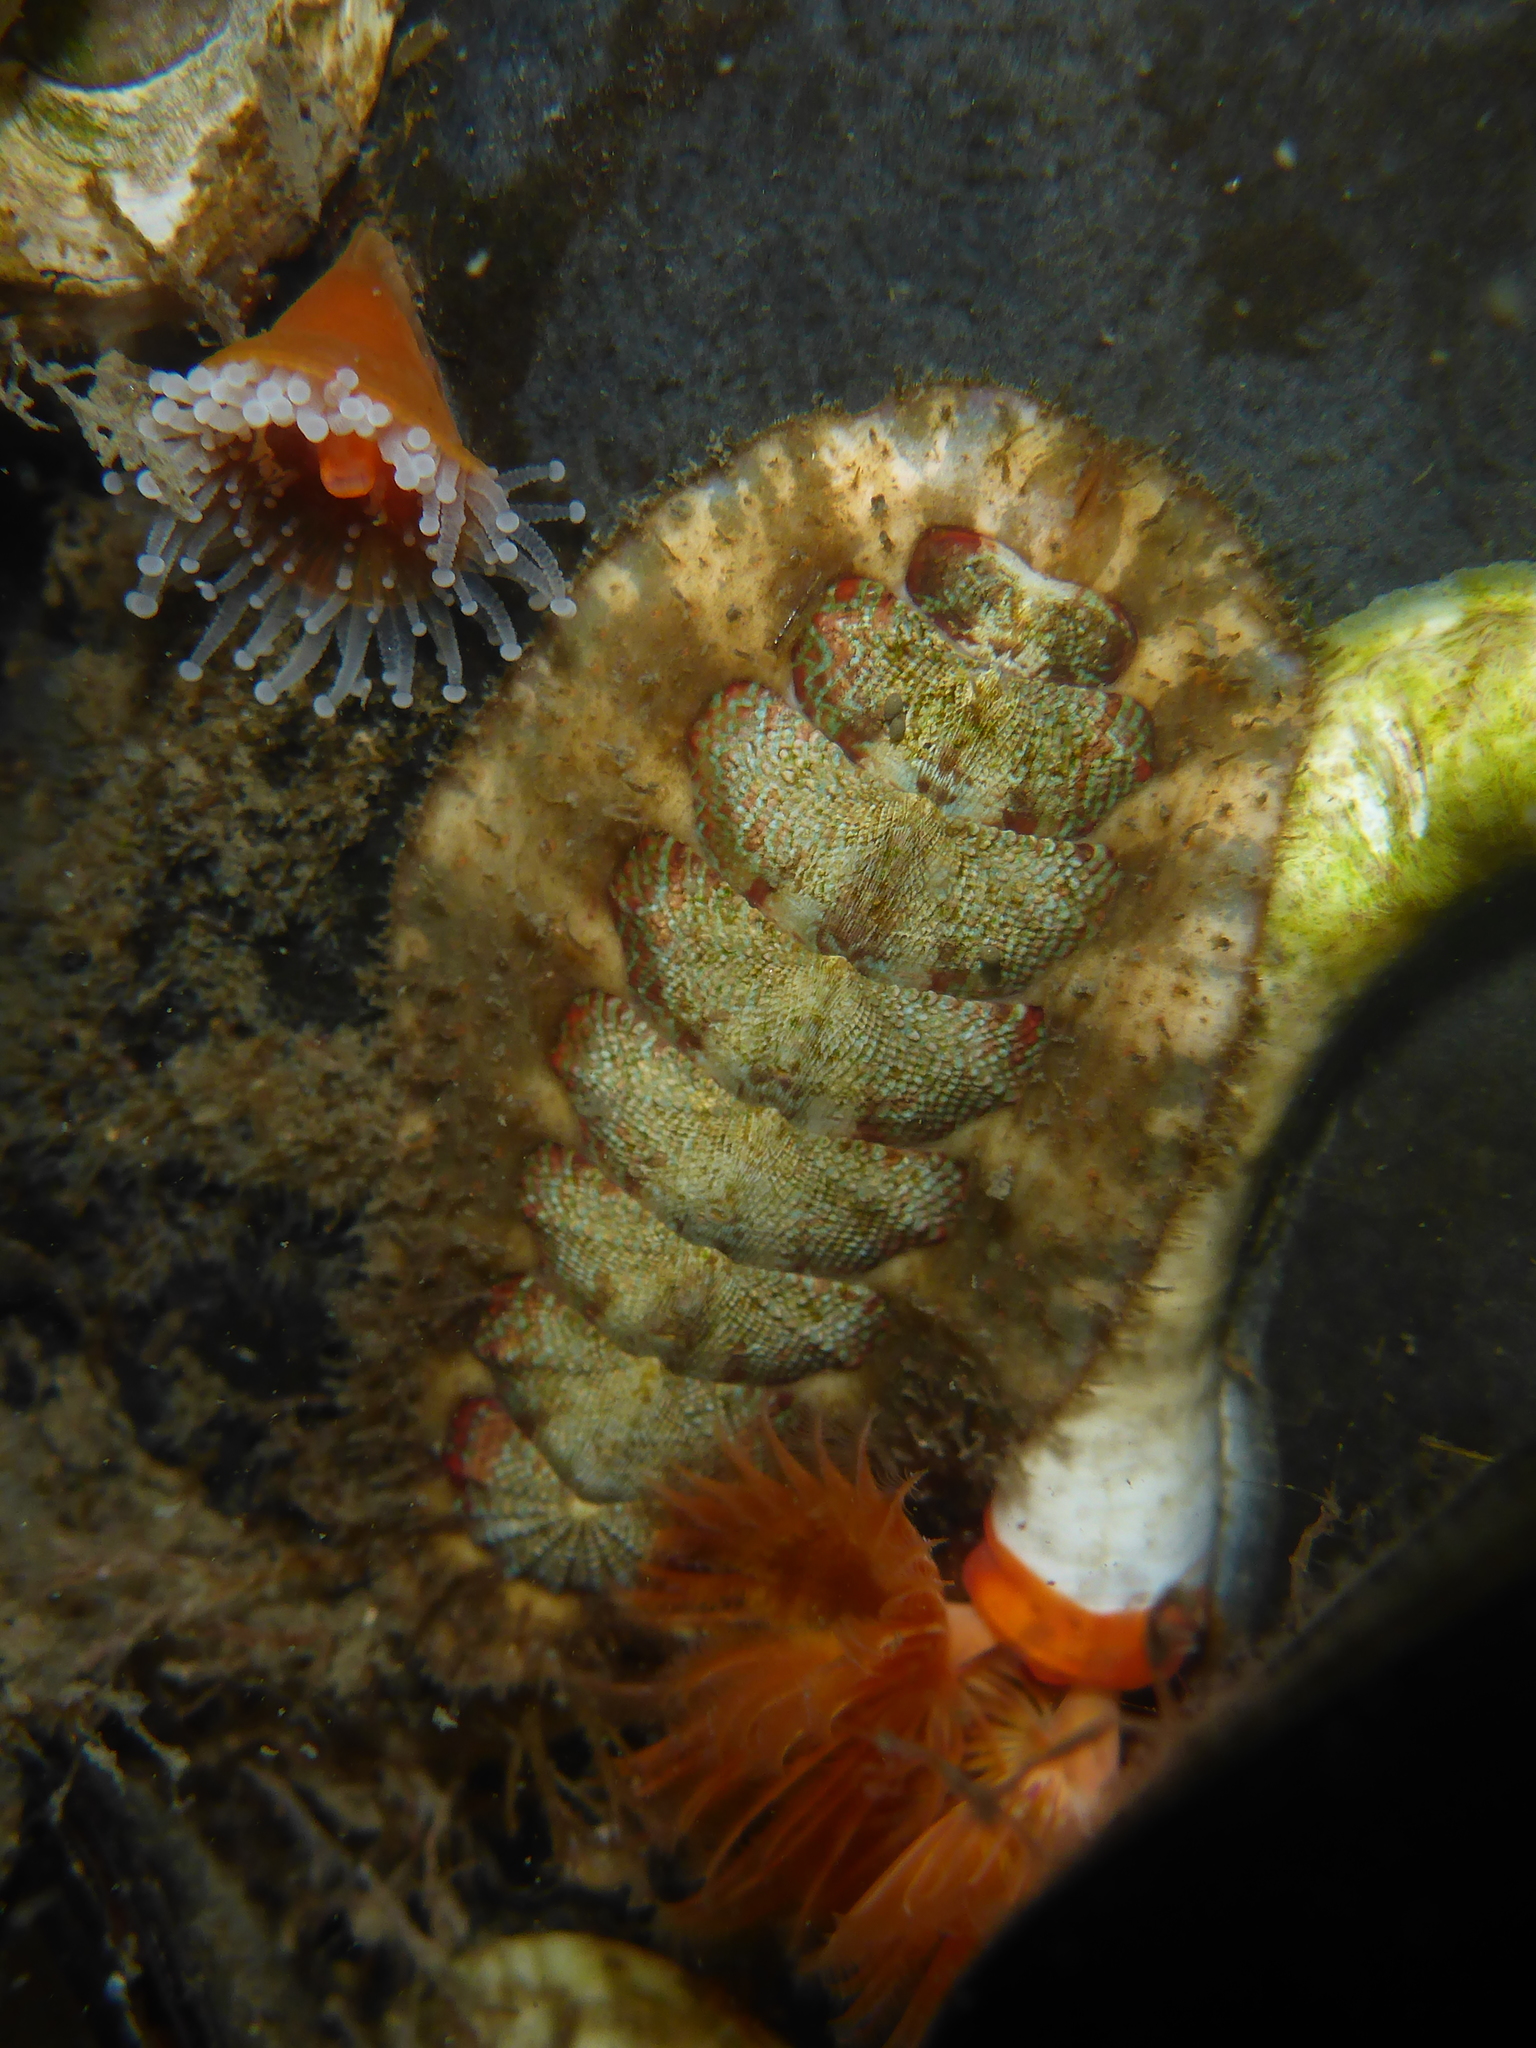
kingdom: Animalia
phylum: Mollusca
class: Polyplacophora
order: Chitonida
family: Mopaliidae
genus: Mopalia
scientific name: Mopalia spectabilis
